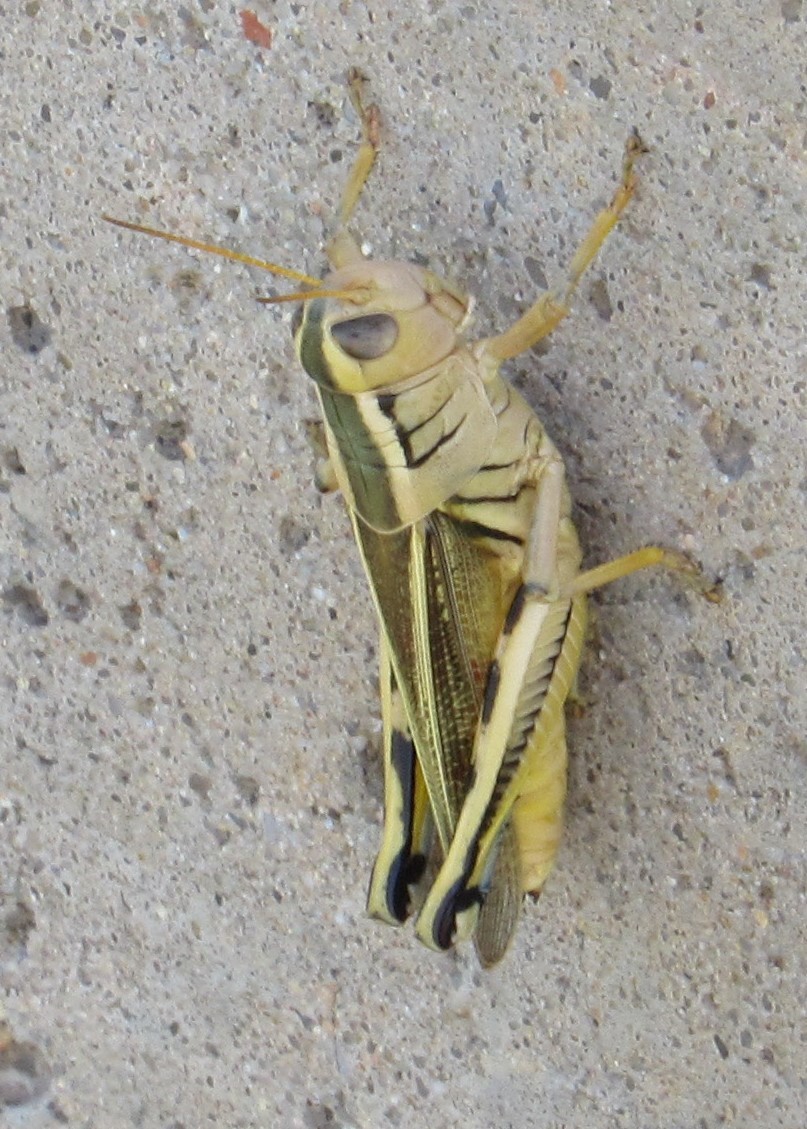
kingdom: Animalia
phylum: Arthropoda
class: Insecta
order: Orthoptera
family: Acrididae
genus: Melanoplus
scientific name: Melanoplus bivittatus
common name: Two-striped grasshopper
